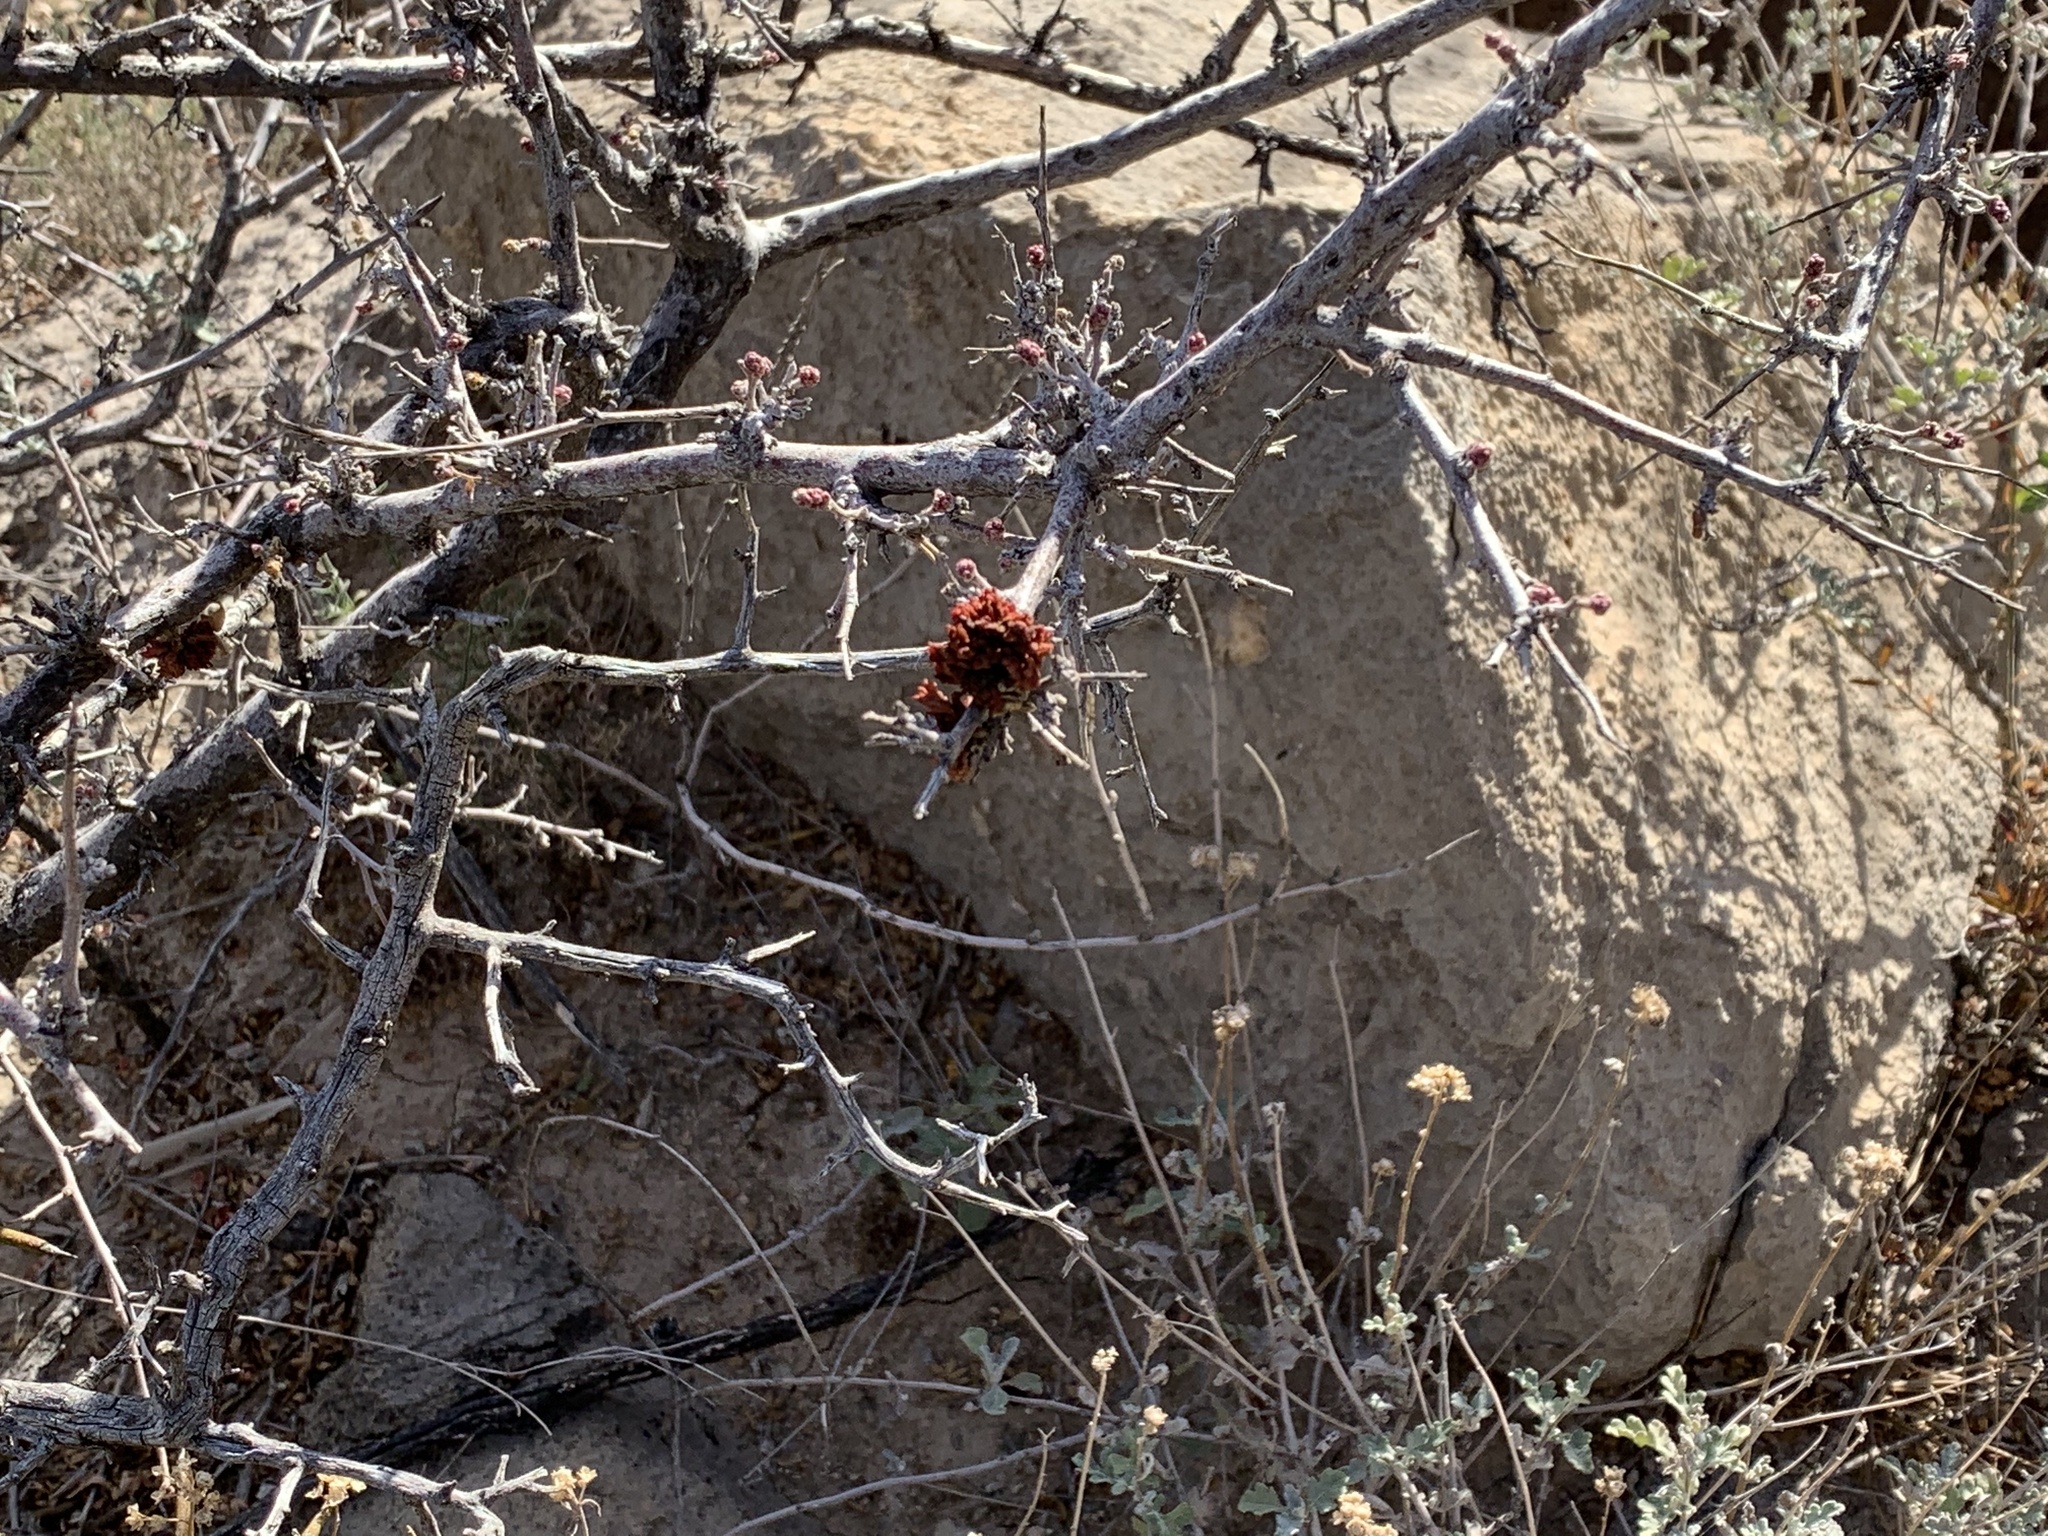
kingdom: Animalia
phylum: Arthropoda
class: Arachnida
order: Trombidiformes
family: Eriophyidae
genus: Aculops
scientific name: Aculops
